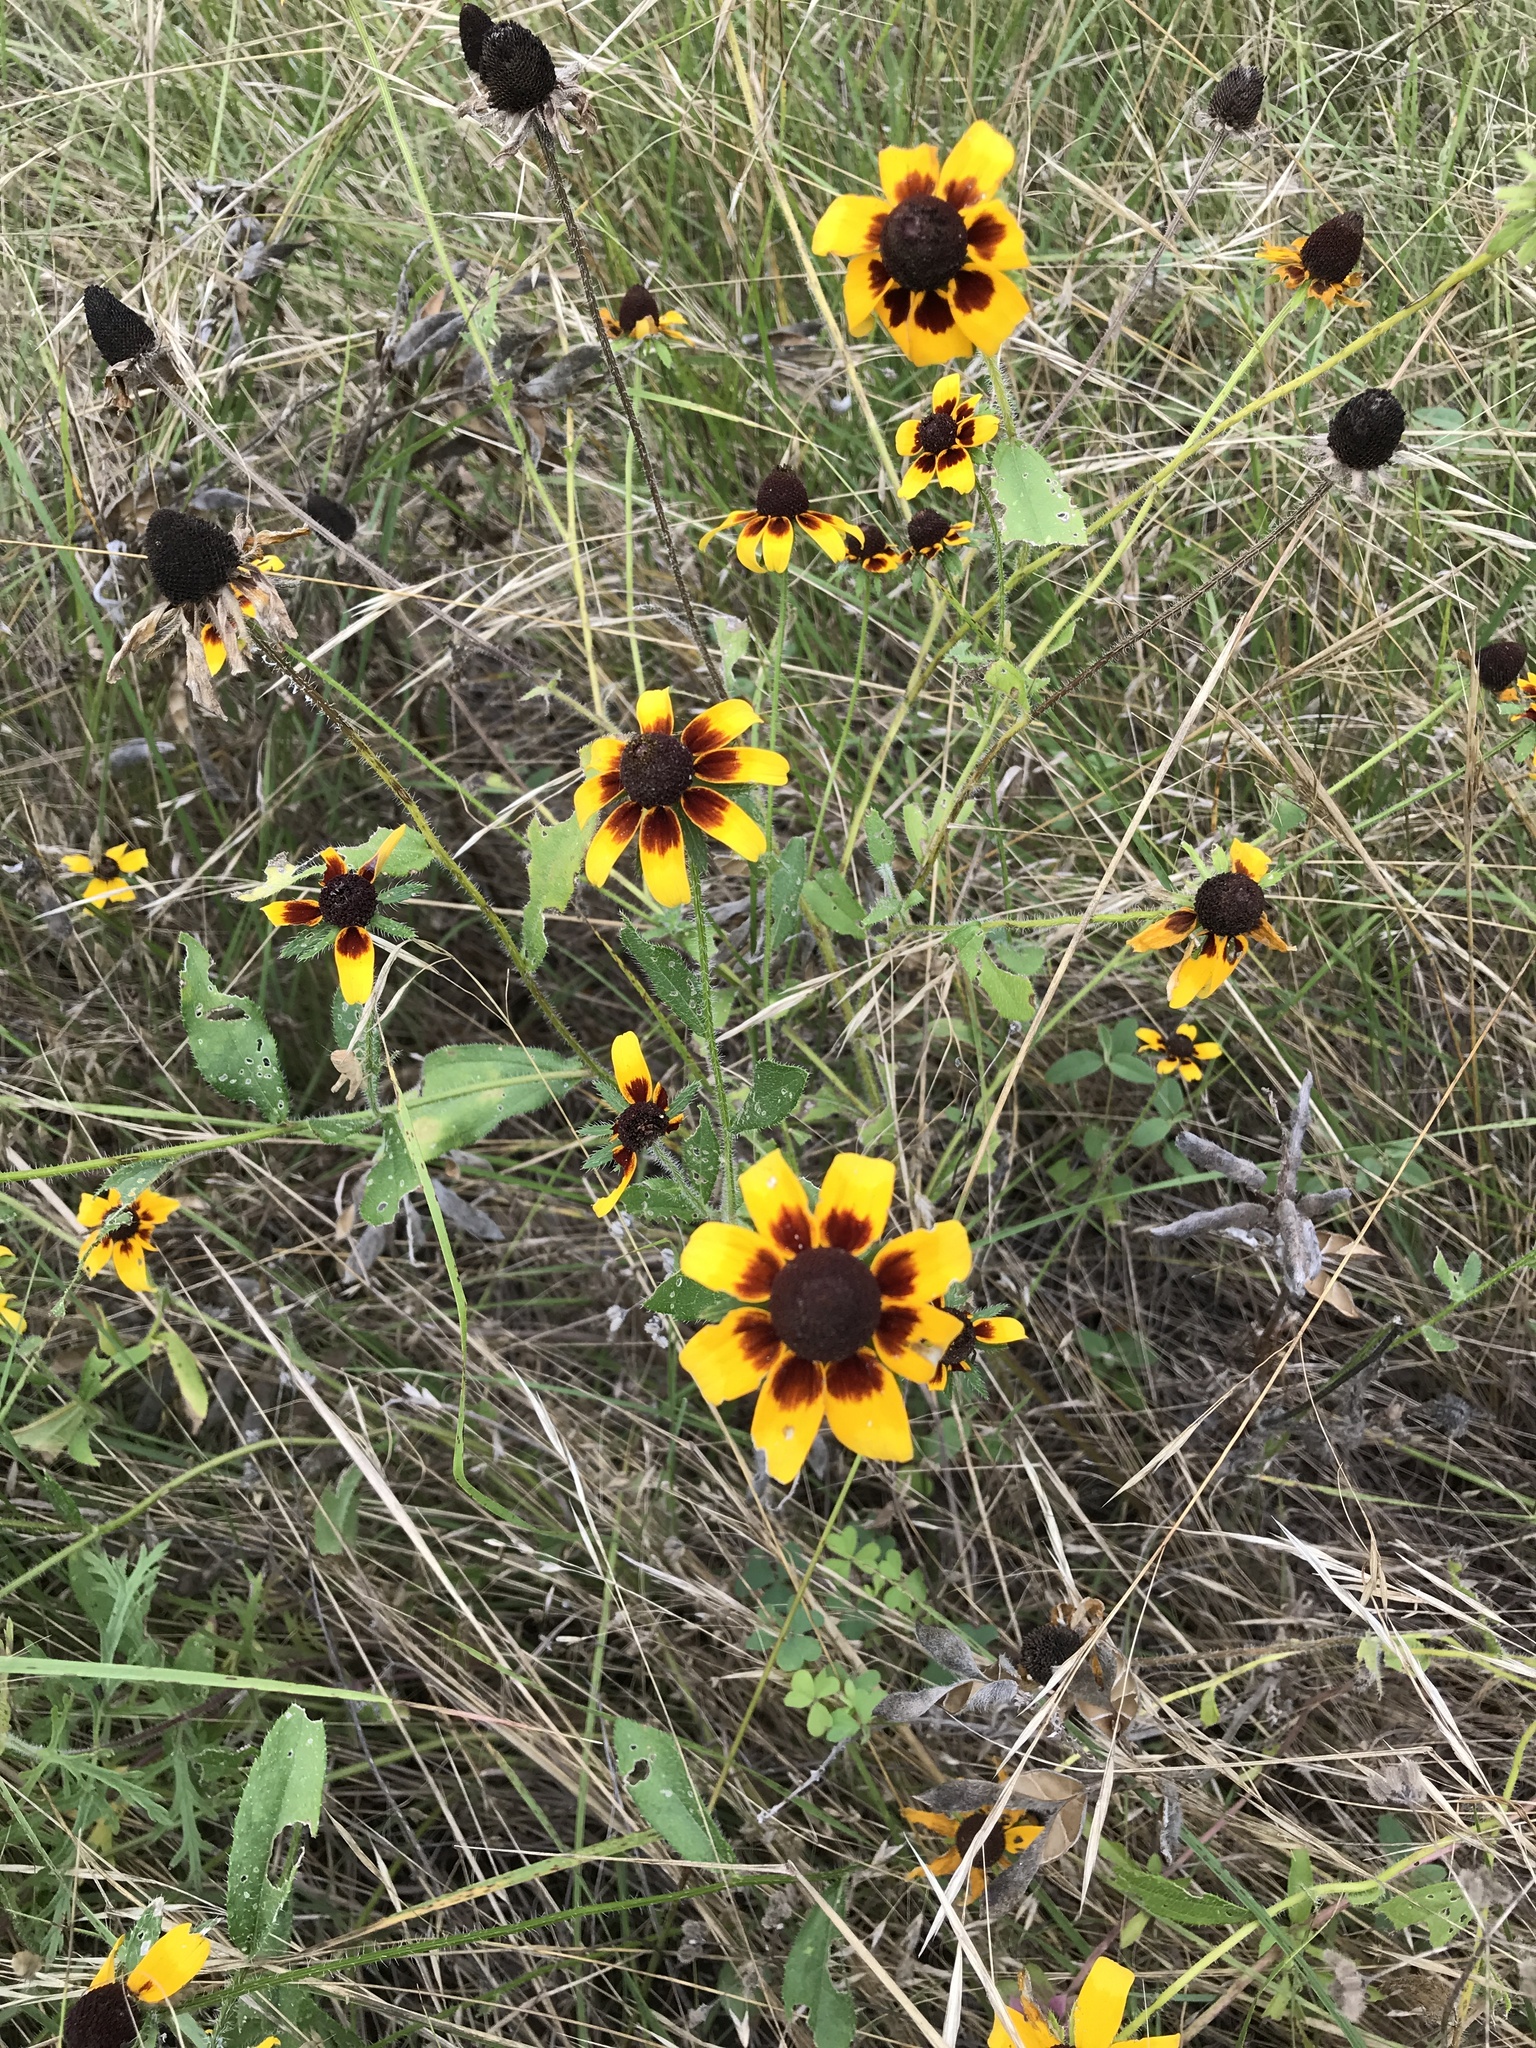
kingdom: Plantae
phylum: Tracheophyta
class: Magnoliopsida
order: Asterales
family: Asteraceae
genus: Rudbeckia
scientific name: Rudbeckia hirta
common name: Black-eyed-susan
